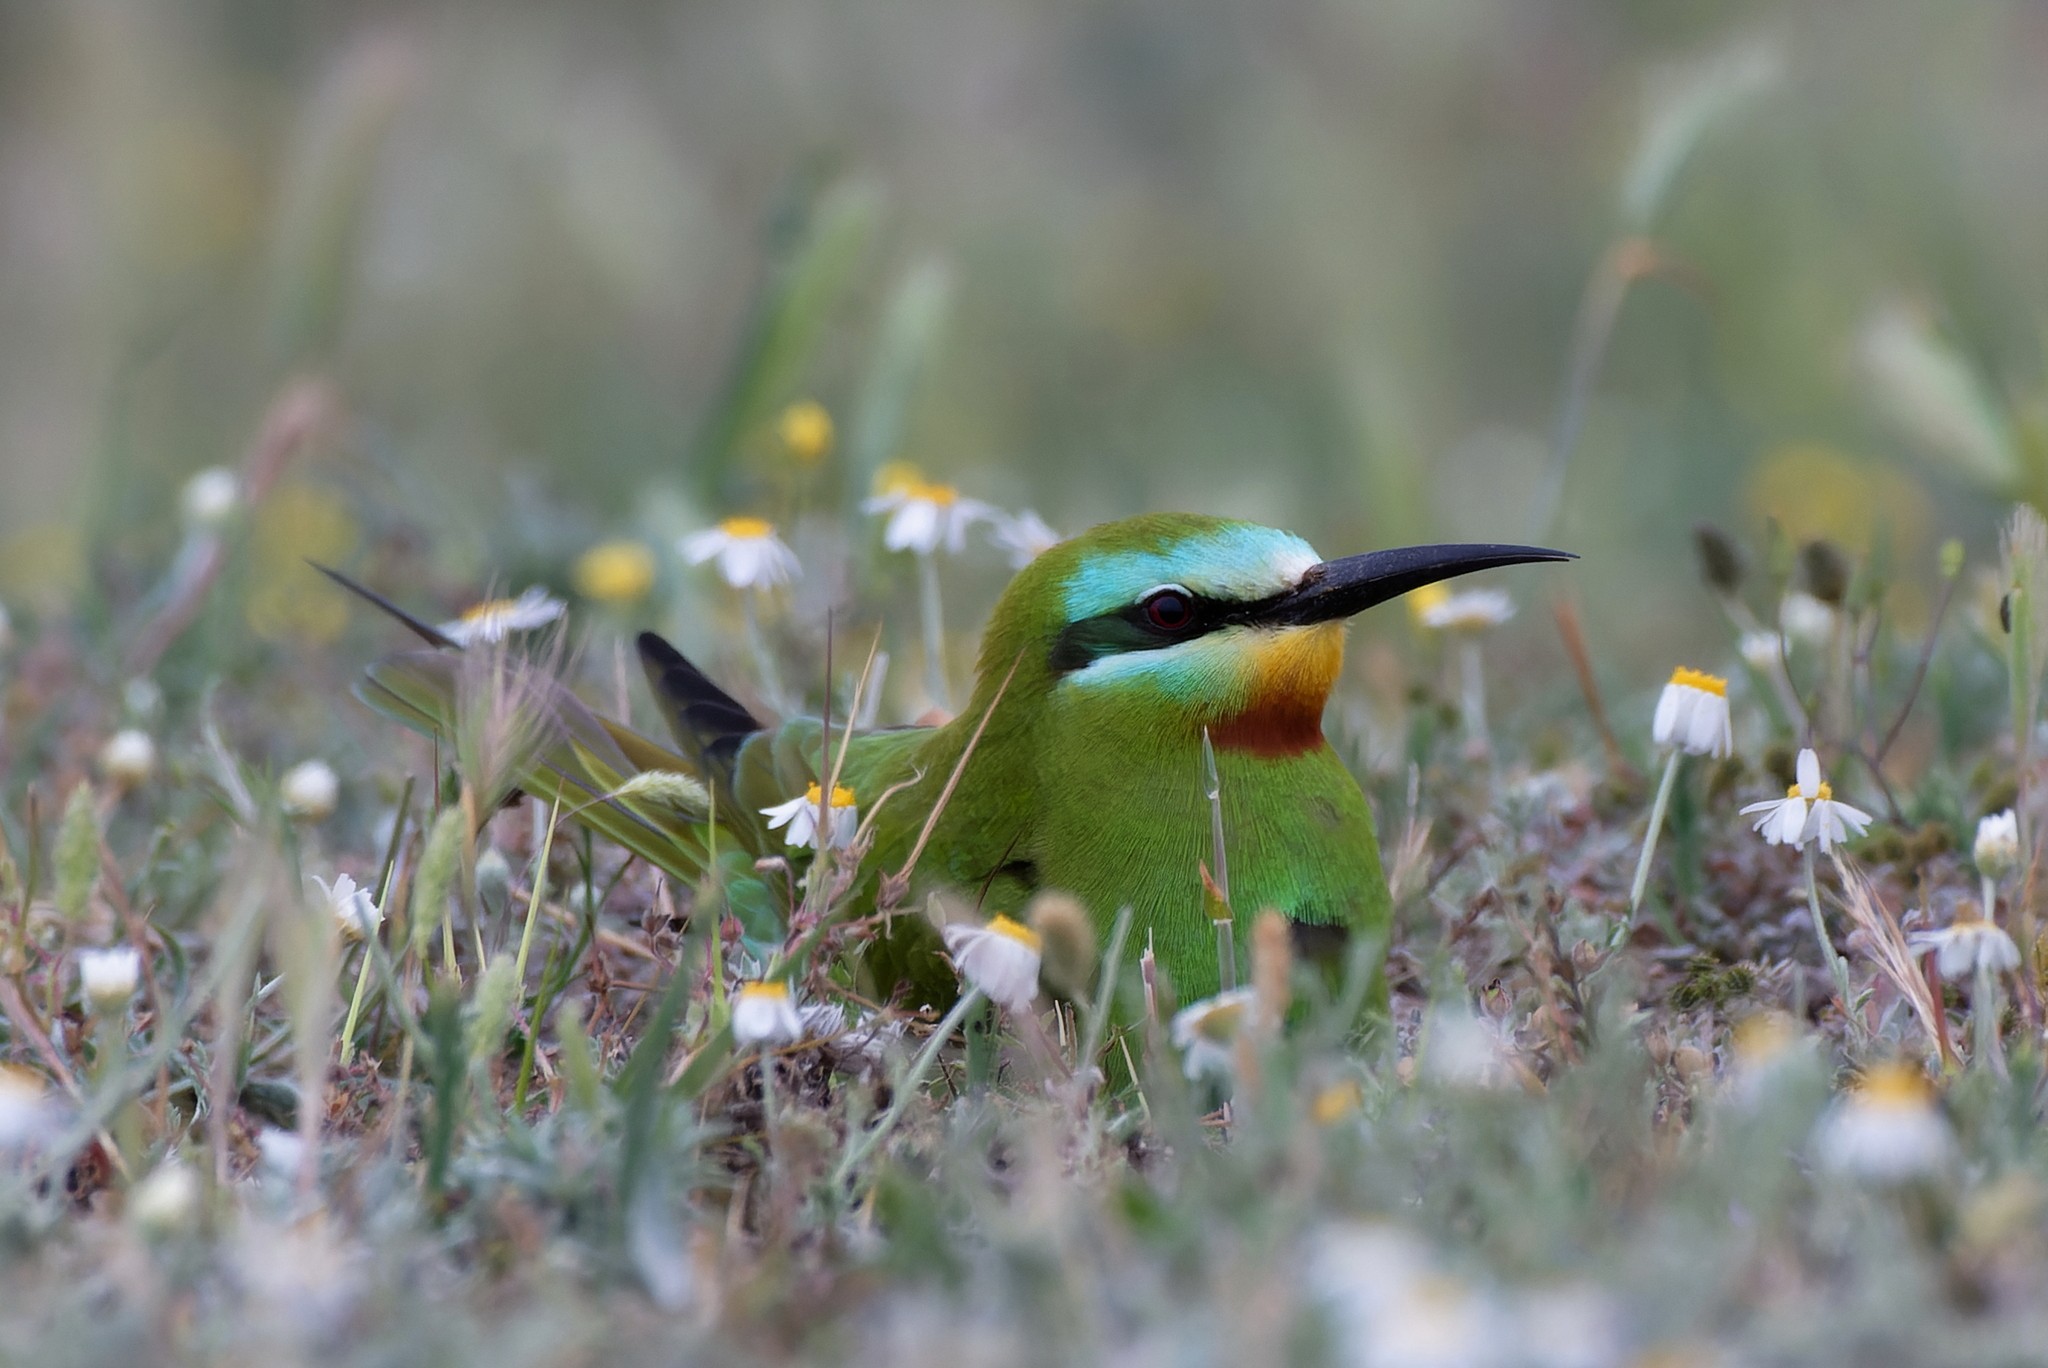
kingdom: Animalia
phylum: Chordata
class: Aves
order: Coraciiformes
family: Meropidae
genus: Merops
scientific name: Merops persicus
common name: Blue-cheeked bee-eater
